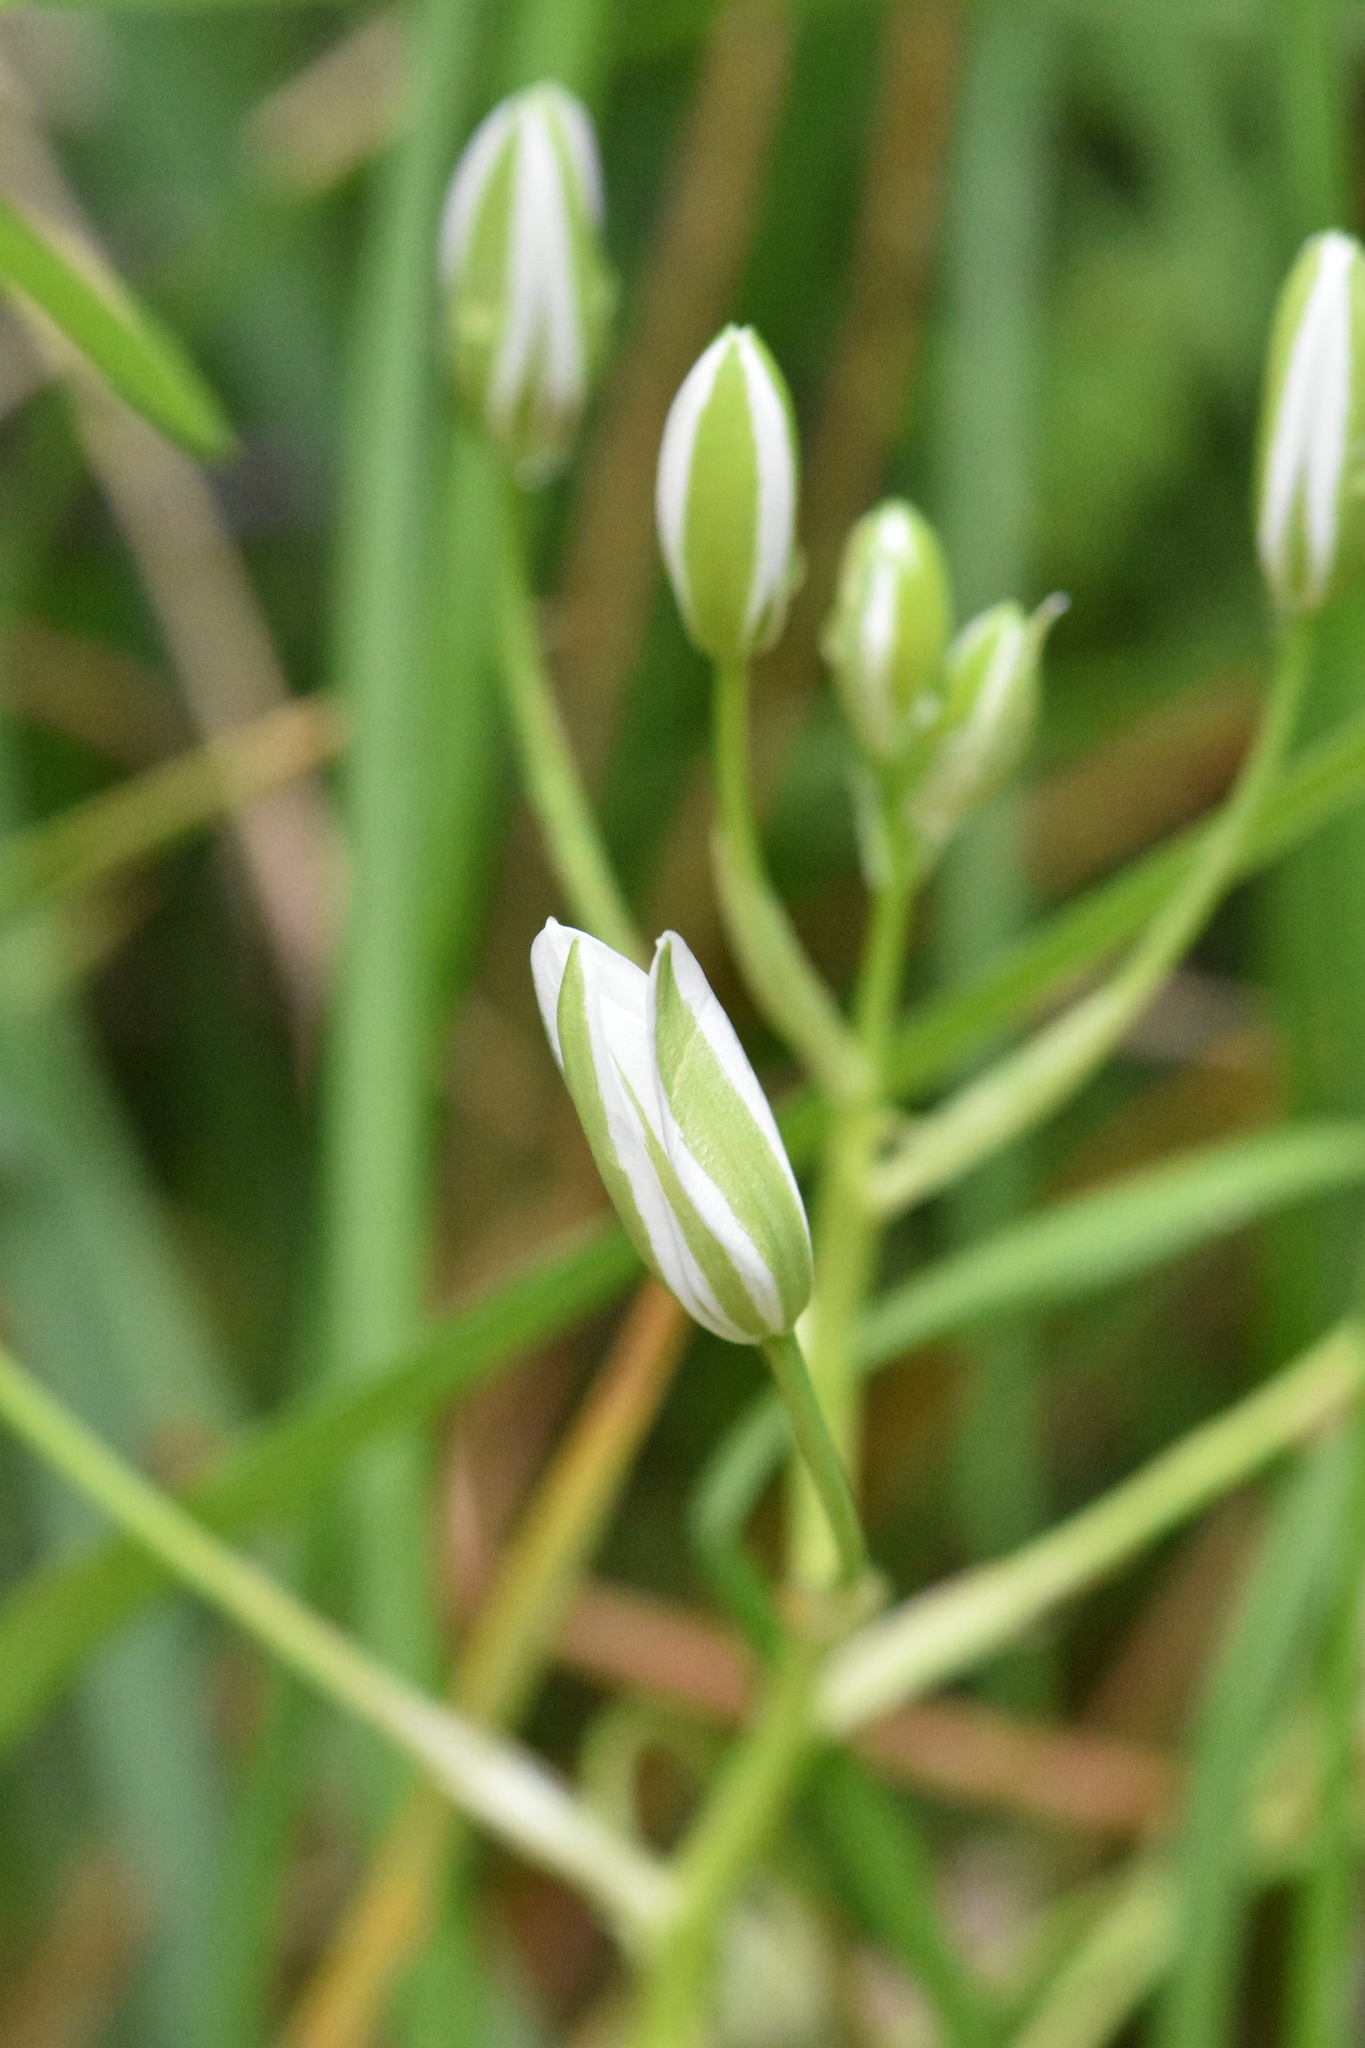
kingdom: Plantae
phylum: Tracheophyta
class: Liliopsida
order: Asparagales
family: Asparagaceae
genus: Ornithogalum
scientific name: Ornithogalum woronowii
